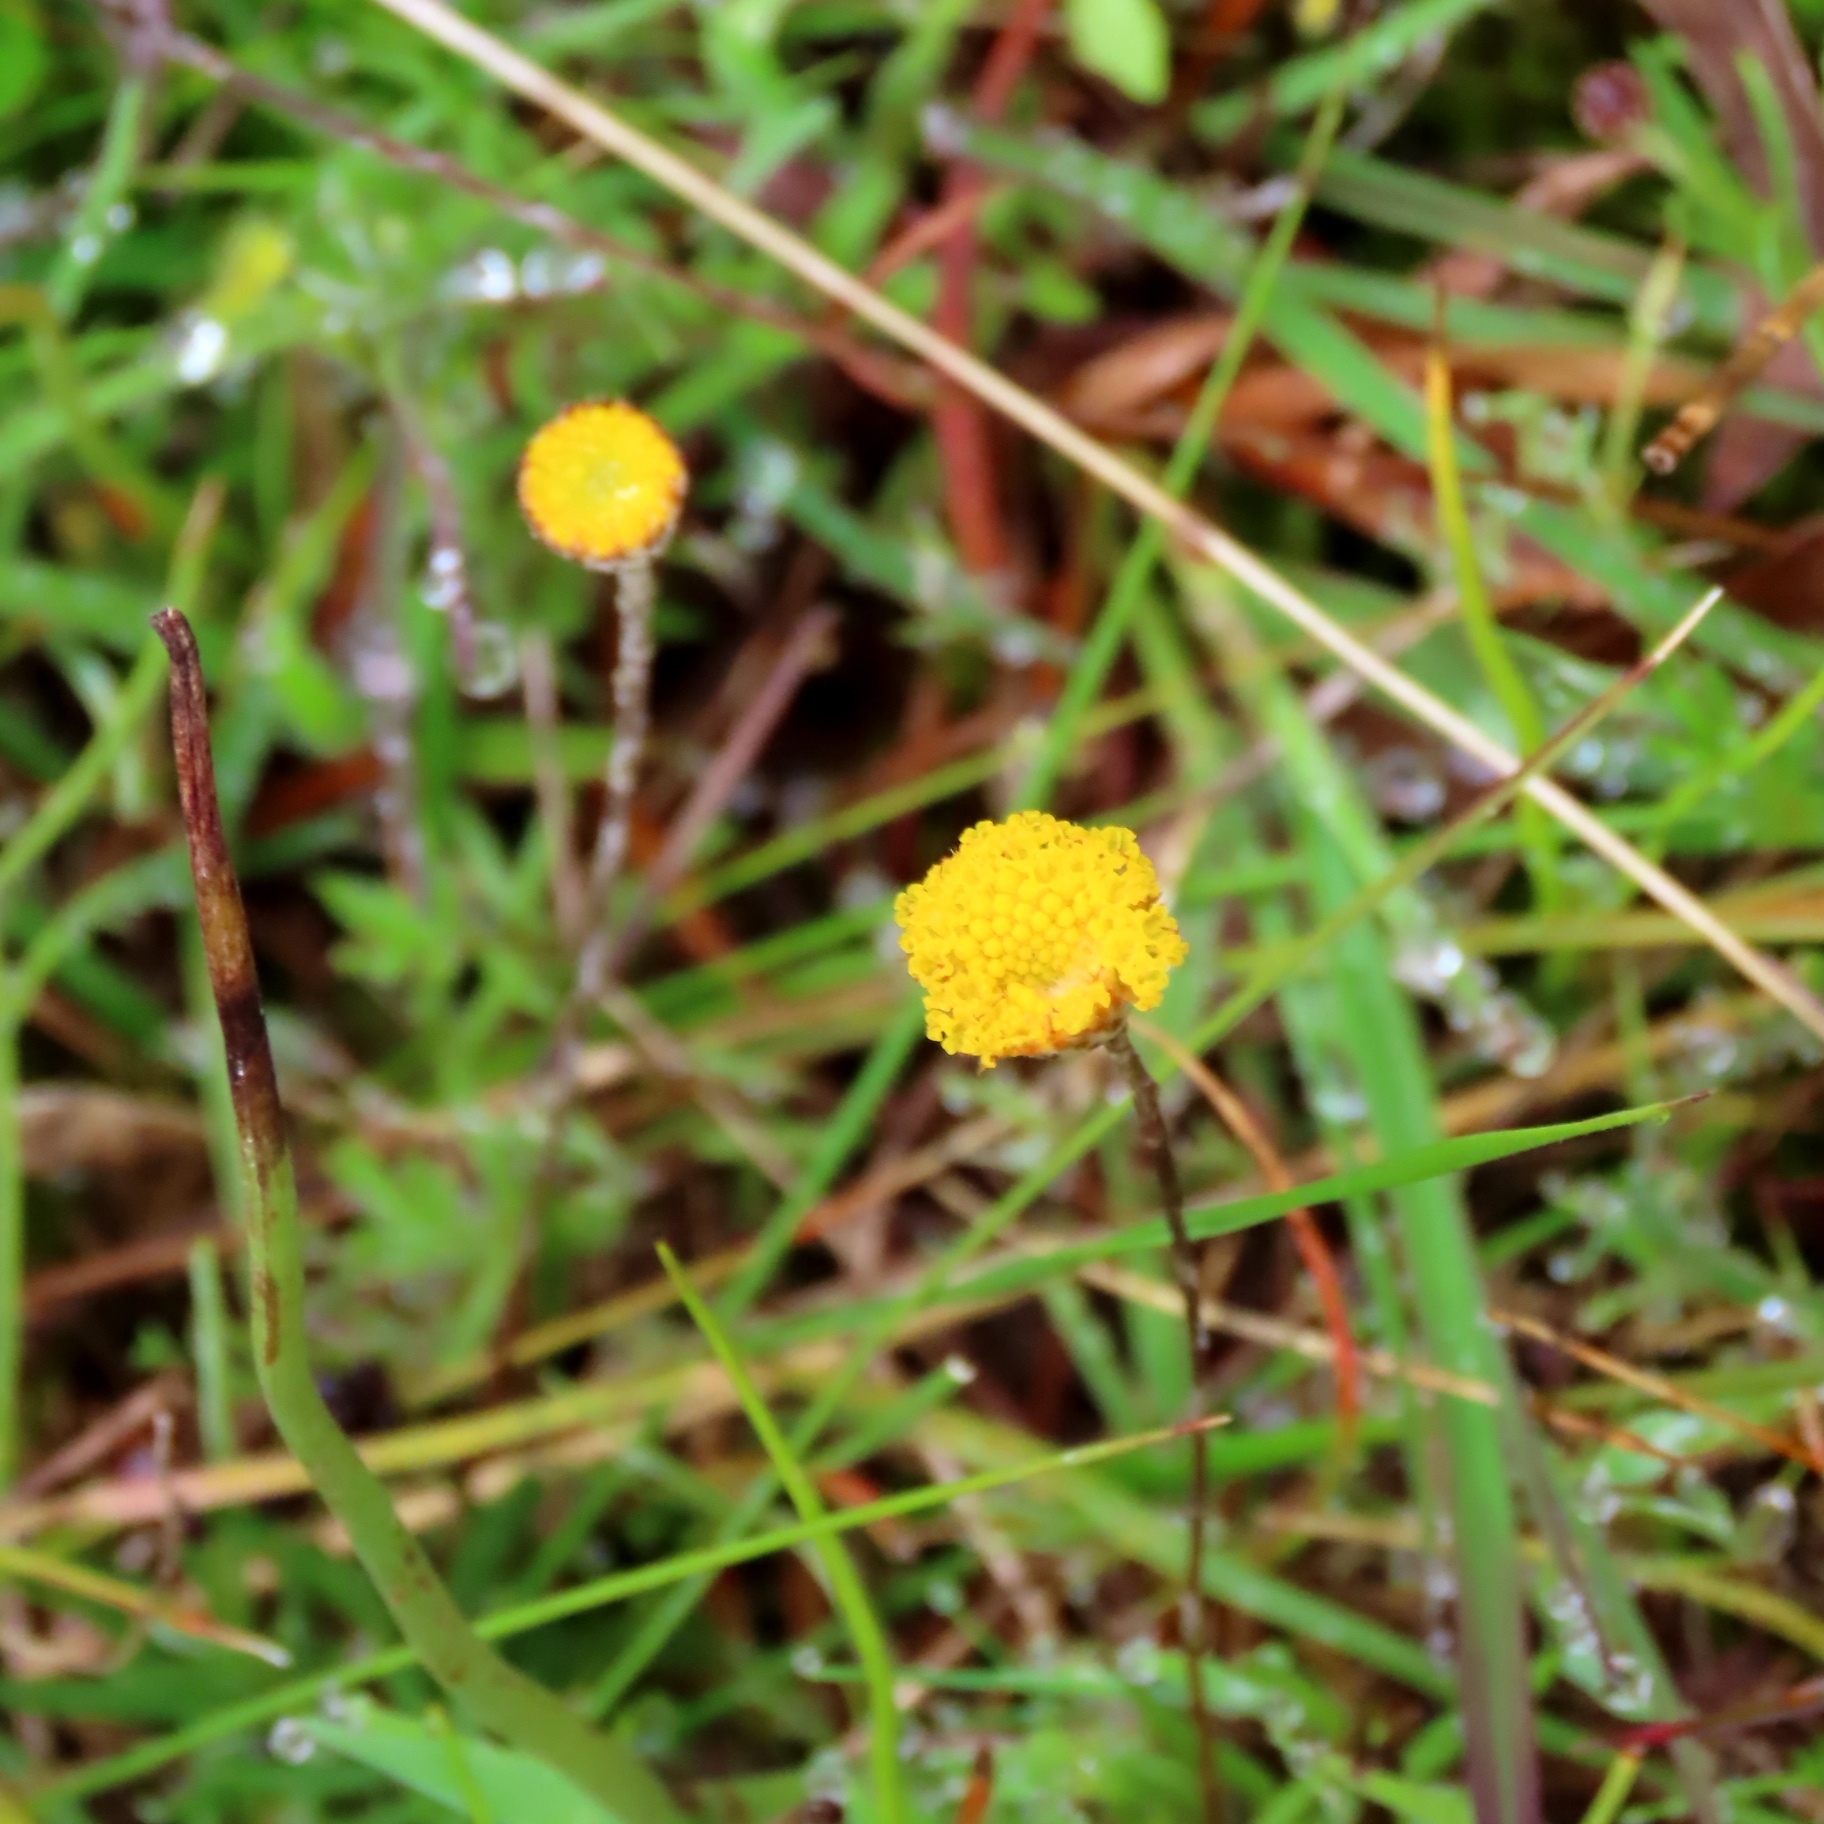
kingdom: Plantae
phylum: Tracheophyta
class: Magnoliopsida
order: Asterales
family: Asteraceae
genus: Leptorhynchos
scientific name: Leptorhynchos squamatus
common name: Scaly-buttons
